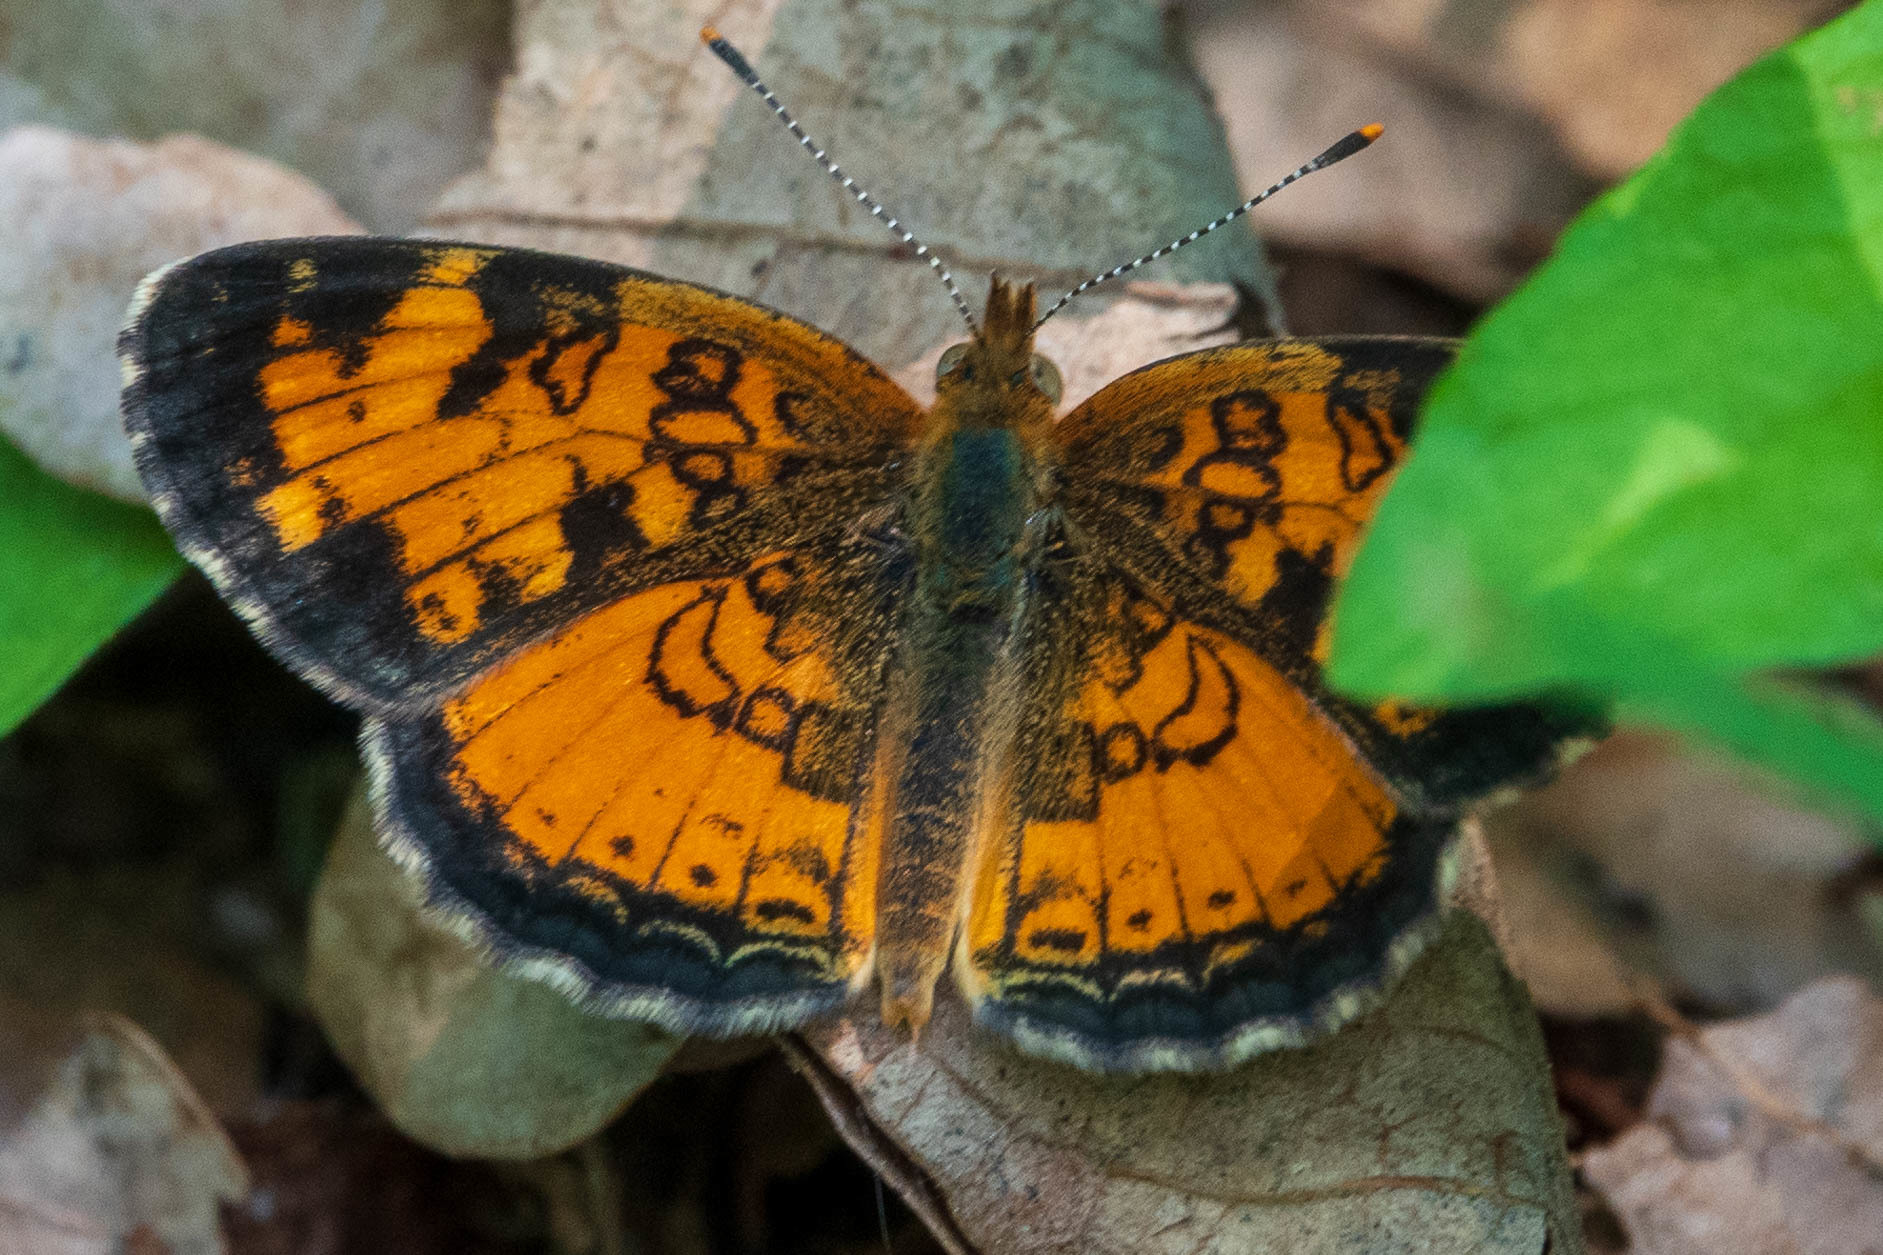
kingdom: Animalia
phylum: Arthropoda
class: Insecta
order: Lepidoptera
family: Nymphalidae
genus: Phyciodes
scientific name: Phyciodes tharos
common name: Pearl crescent
